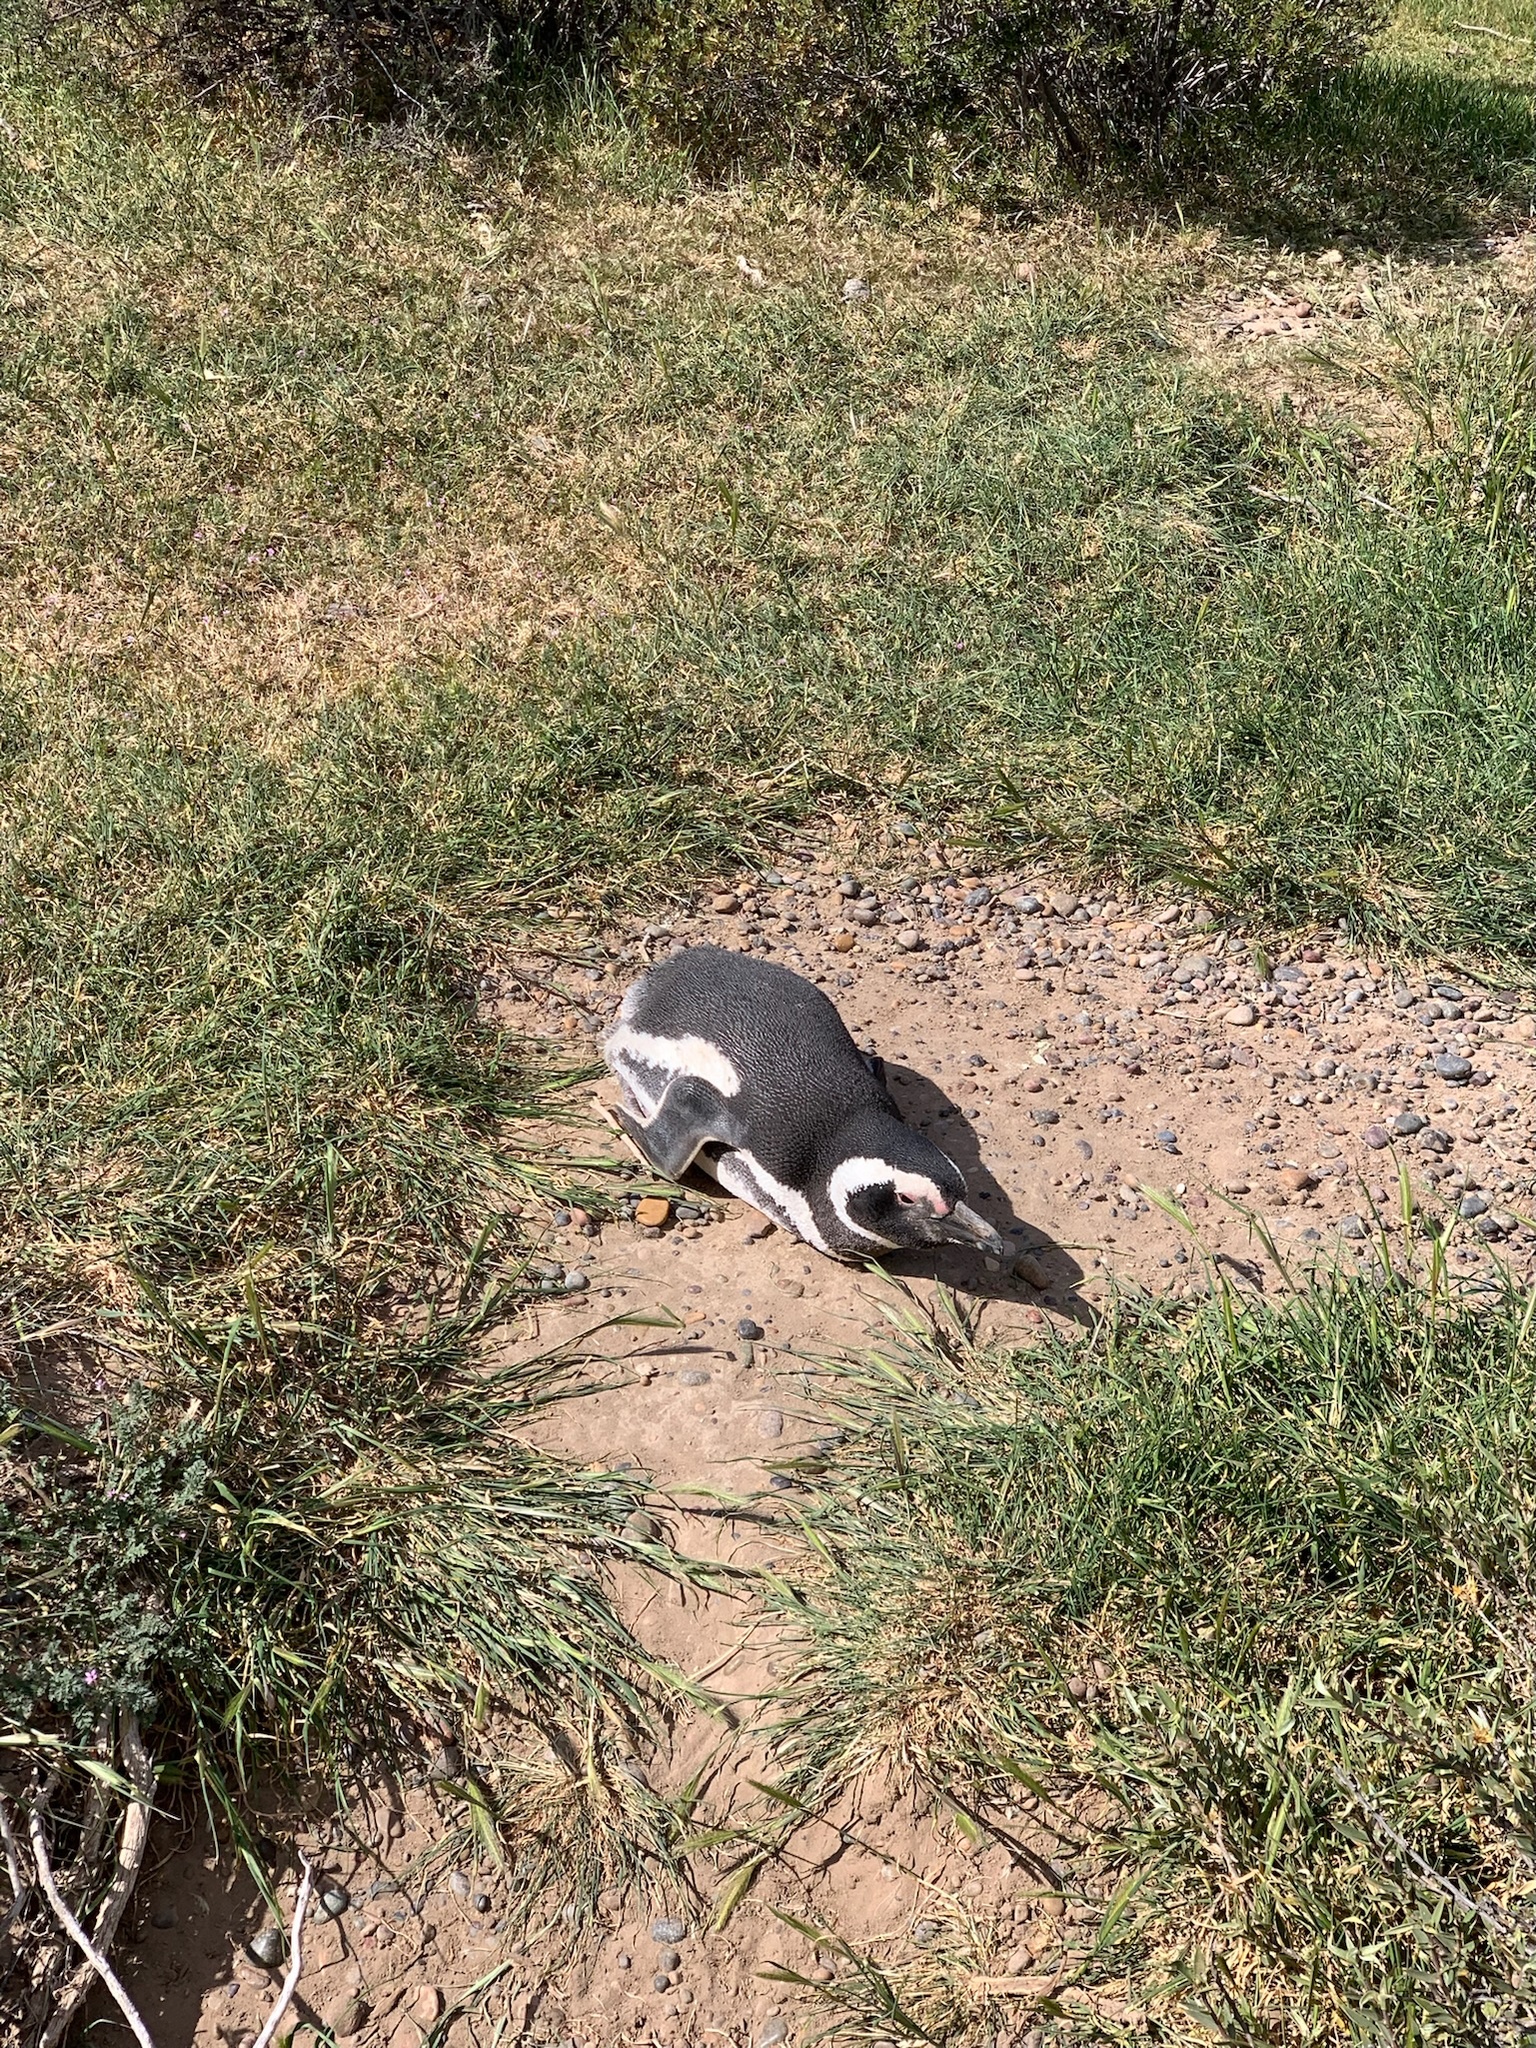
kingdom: Animalia
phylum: Chordata
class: Aves
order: Sphenisciformes
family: Spheniscidae
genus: Spheniscus
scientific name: Spheniscus magellanicus
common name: Magellanic penguin
